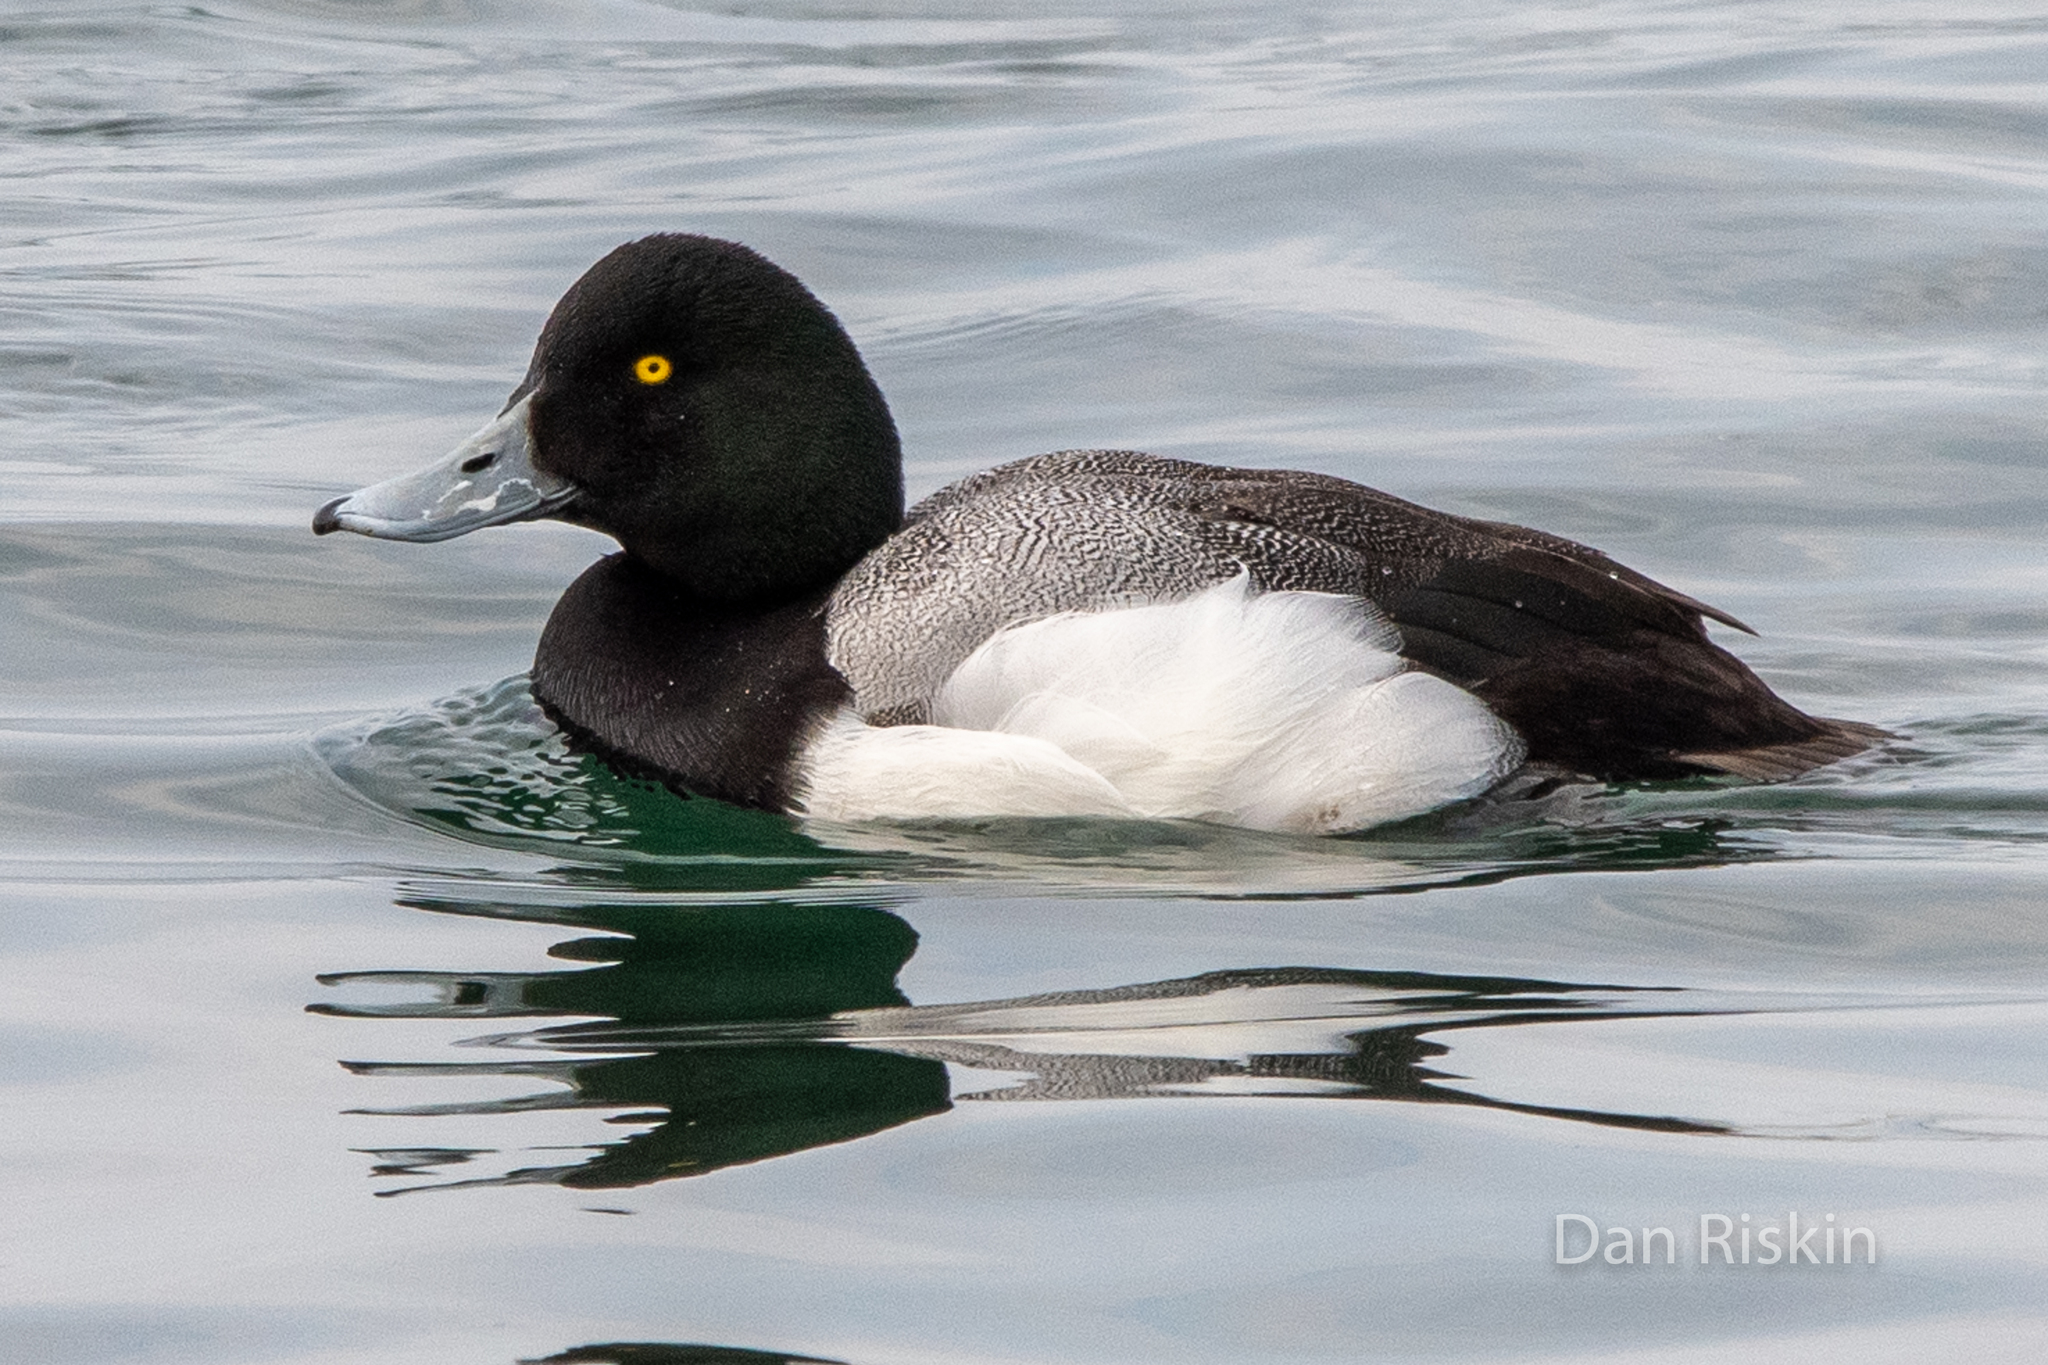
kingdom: Animalia
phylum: Chordata
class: Aves
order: Anseriformes
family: Anatidae
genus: Aythya
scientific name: Aythya marila
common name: Greater scaup
